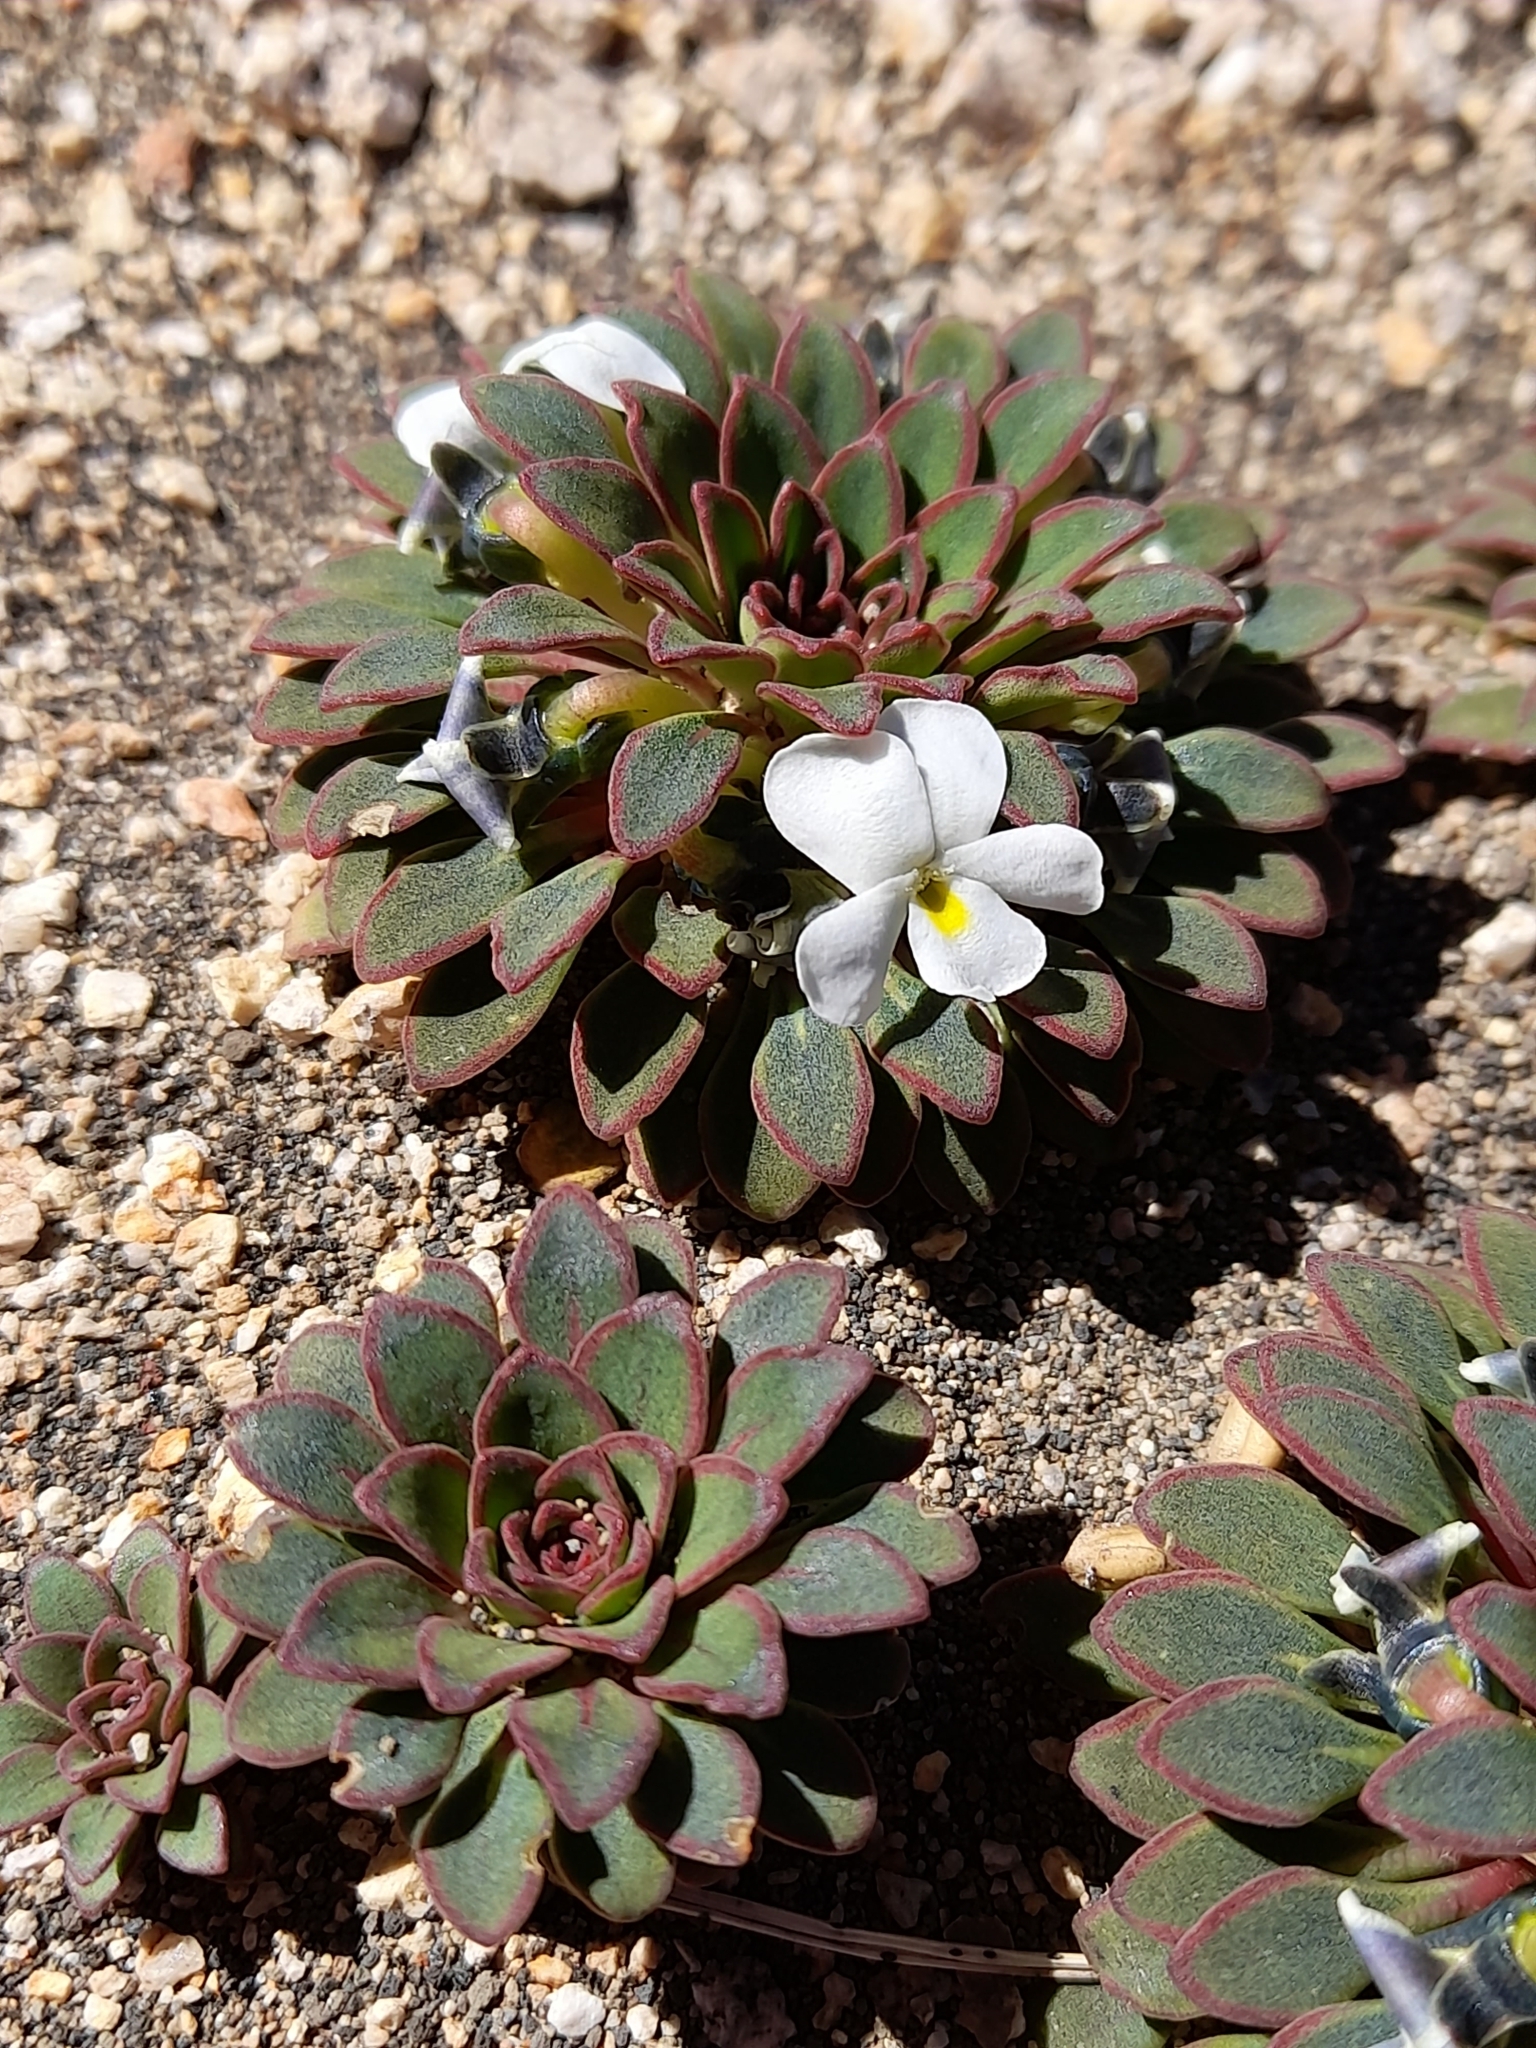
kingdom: Plantae
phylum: Tracheophyta
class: Magnoliopsida
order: Malpighiales
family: Violaceae
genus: Viola
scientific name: Viola sacculus
